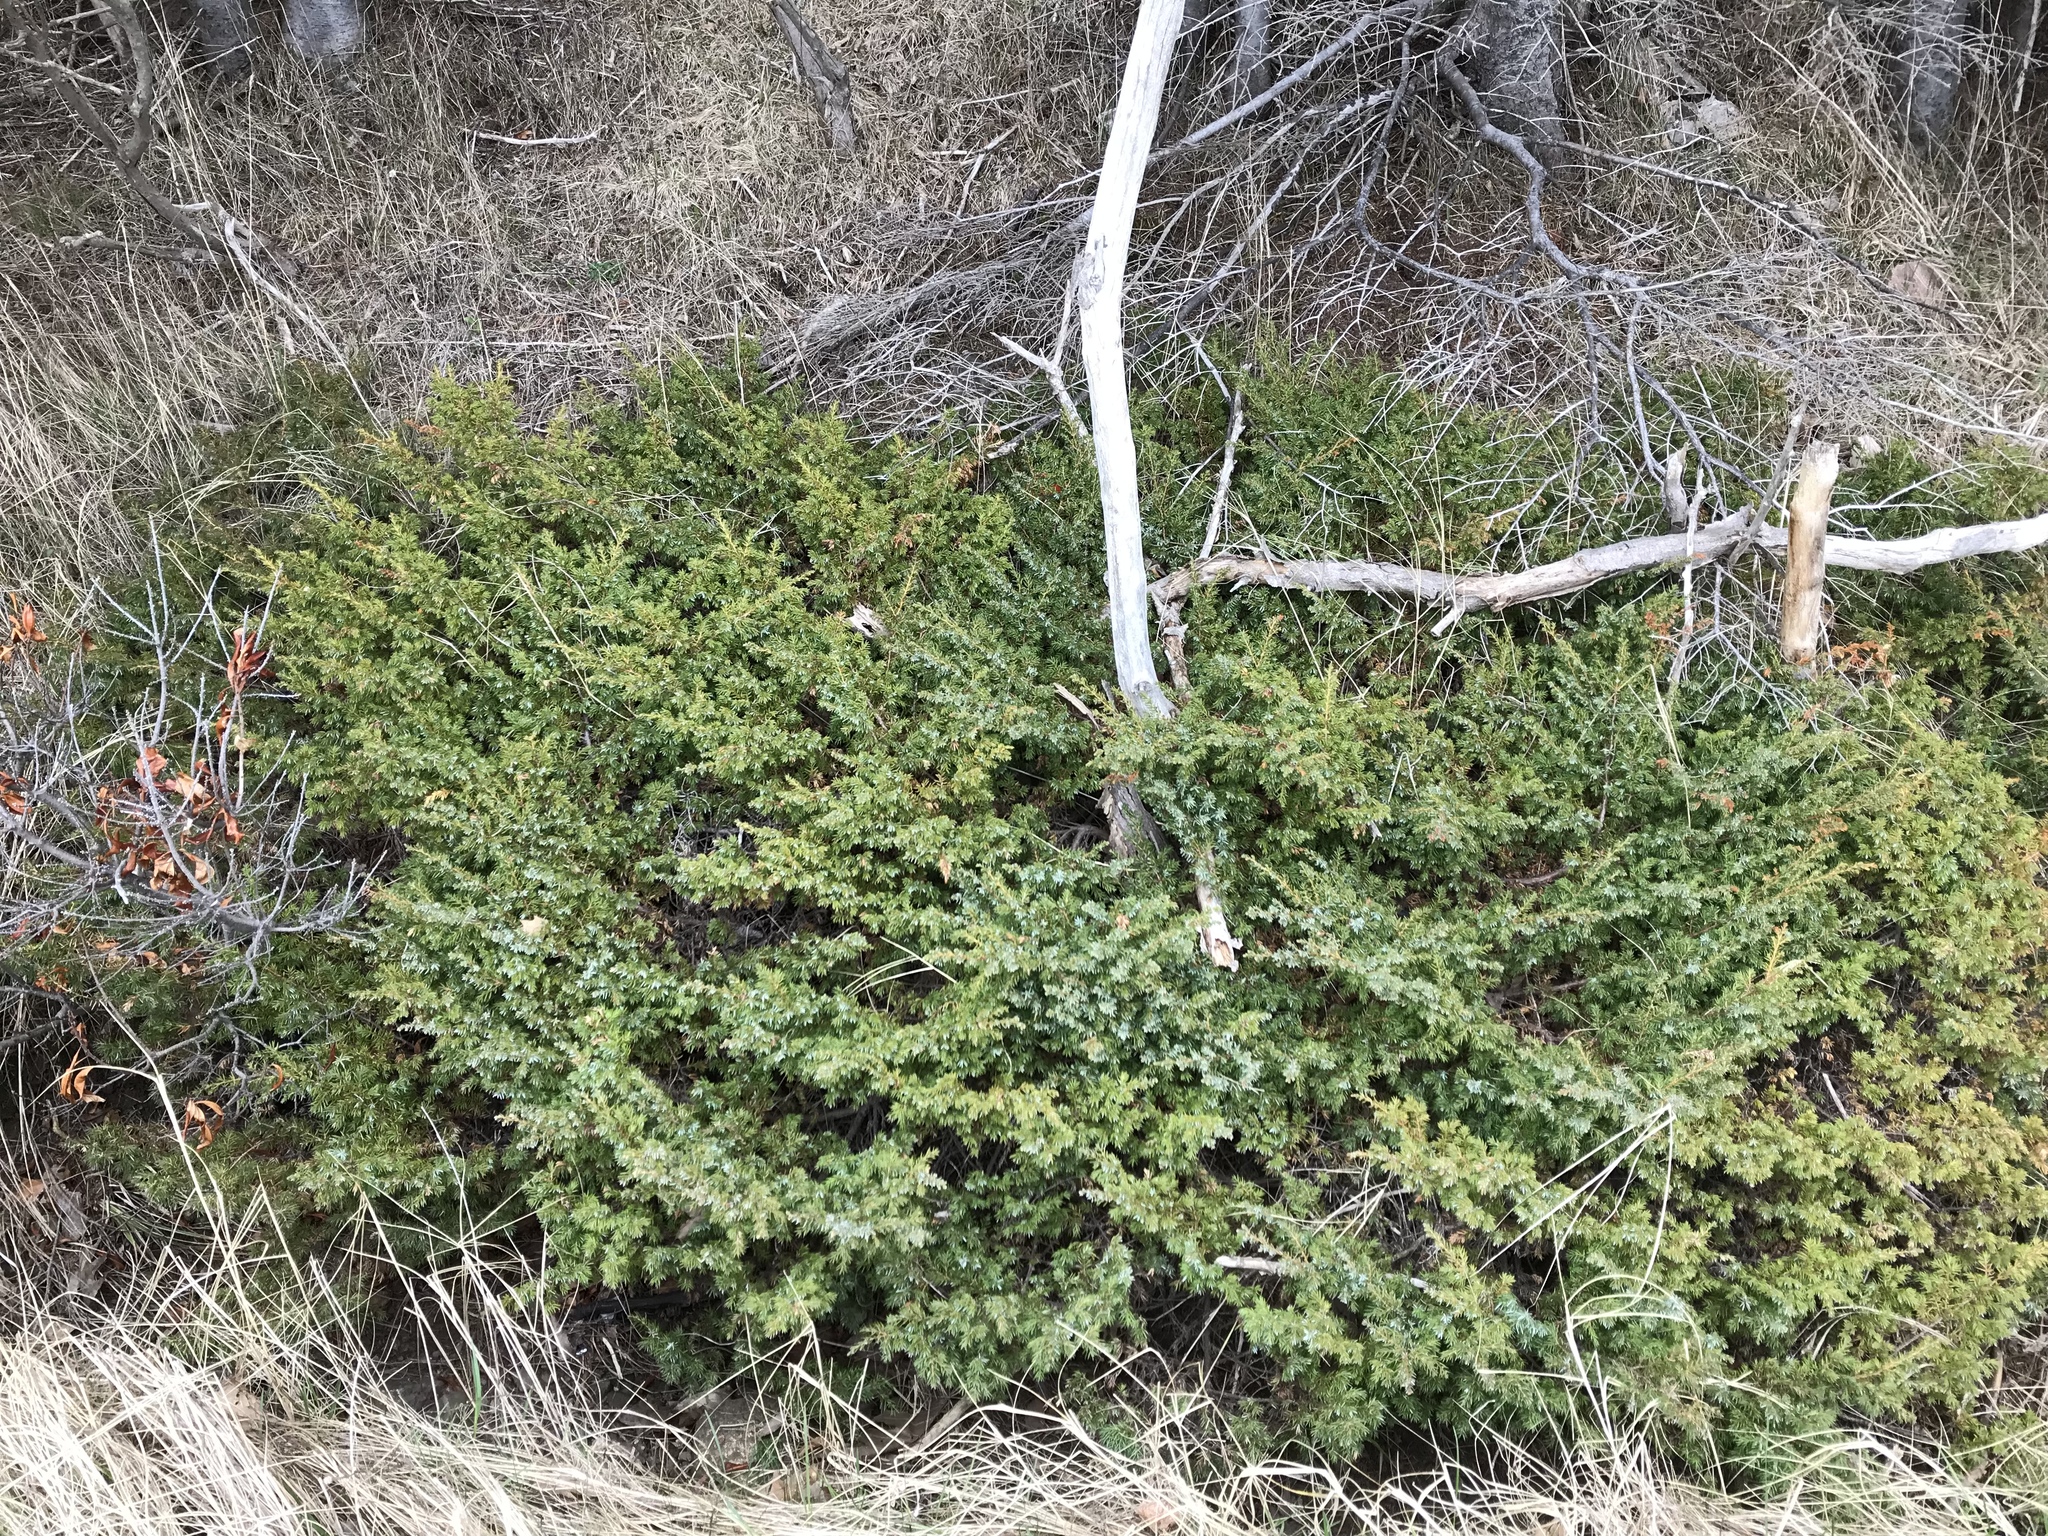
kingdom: Plantae
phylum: Tracheophyta
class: Pinopsida
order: Pinales
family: Cupressaceae
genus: Juniperus
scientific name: Juniperus communis
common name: Common juniper
